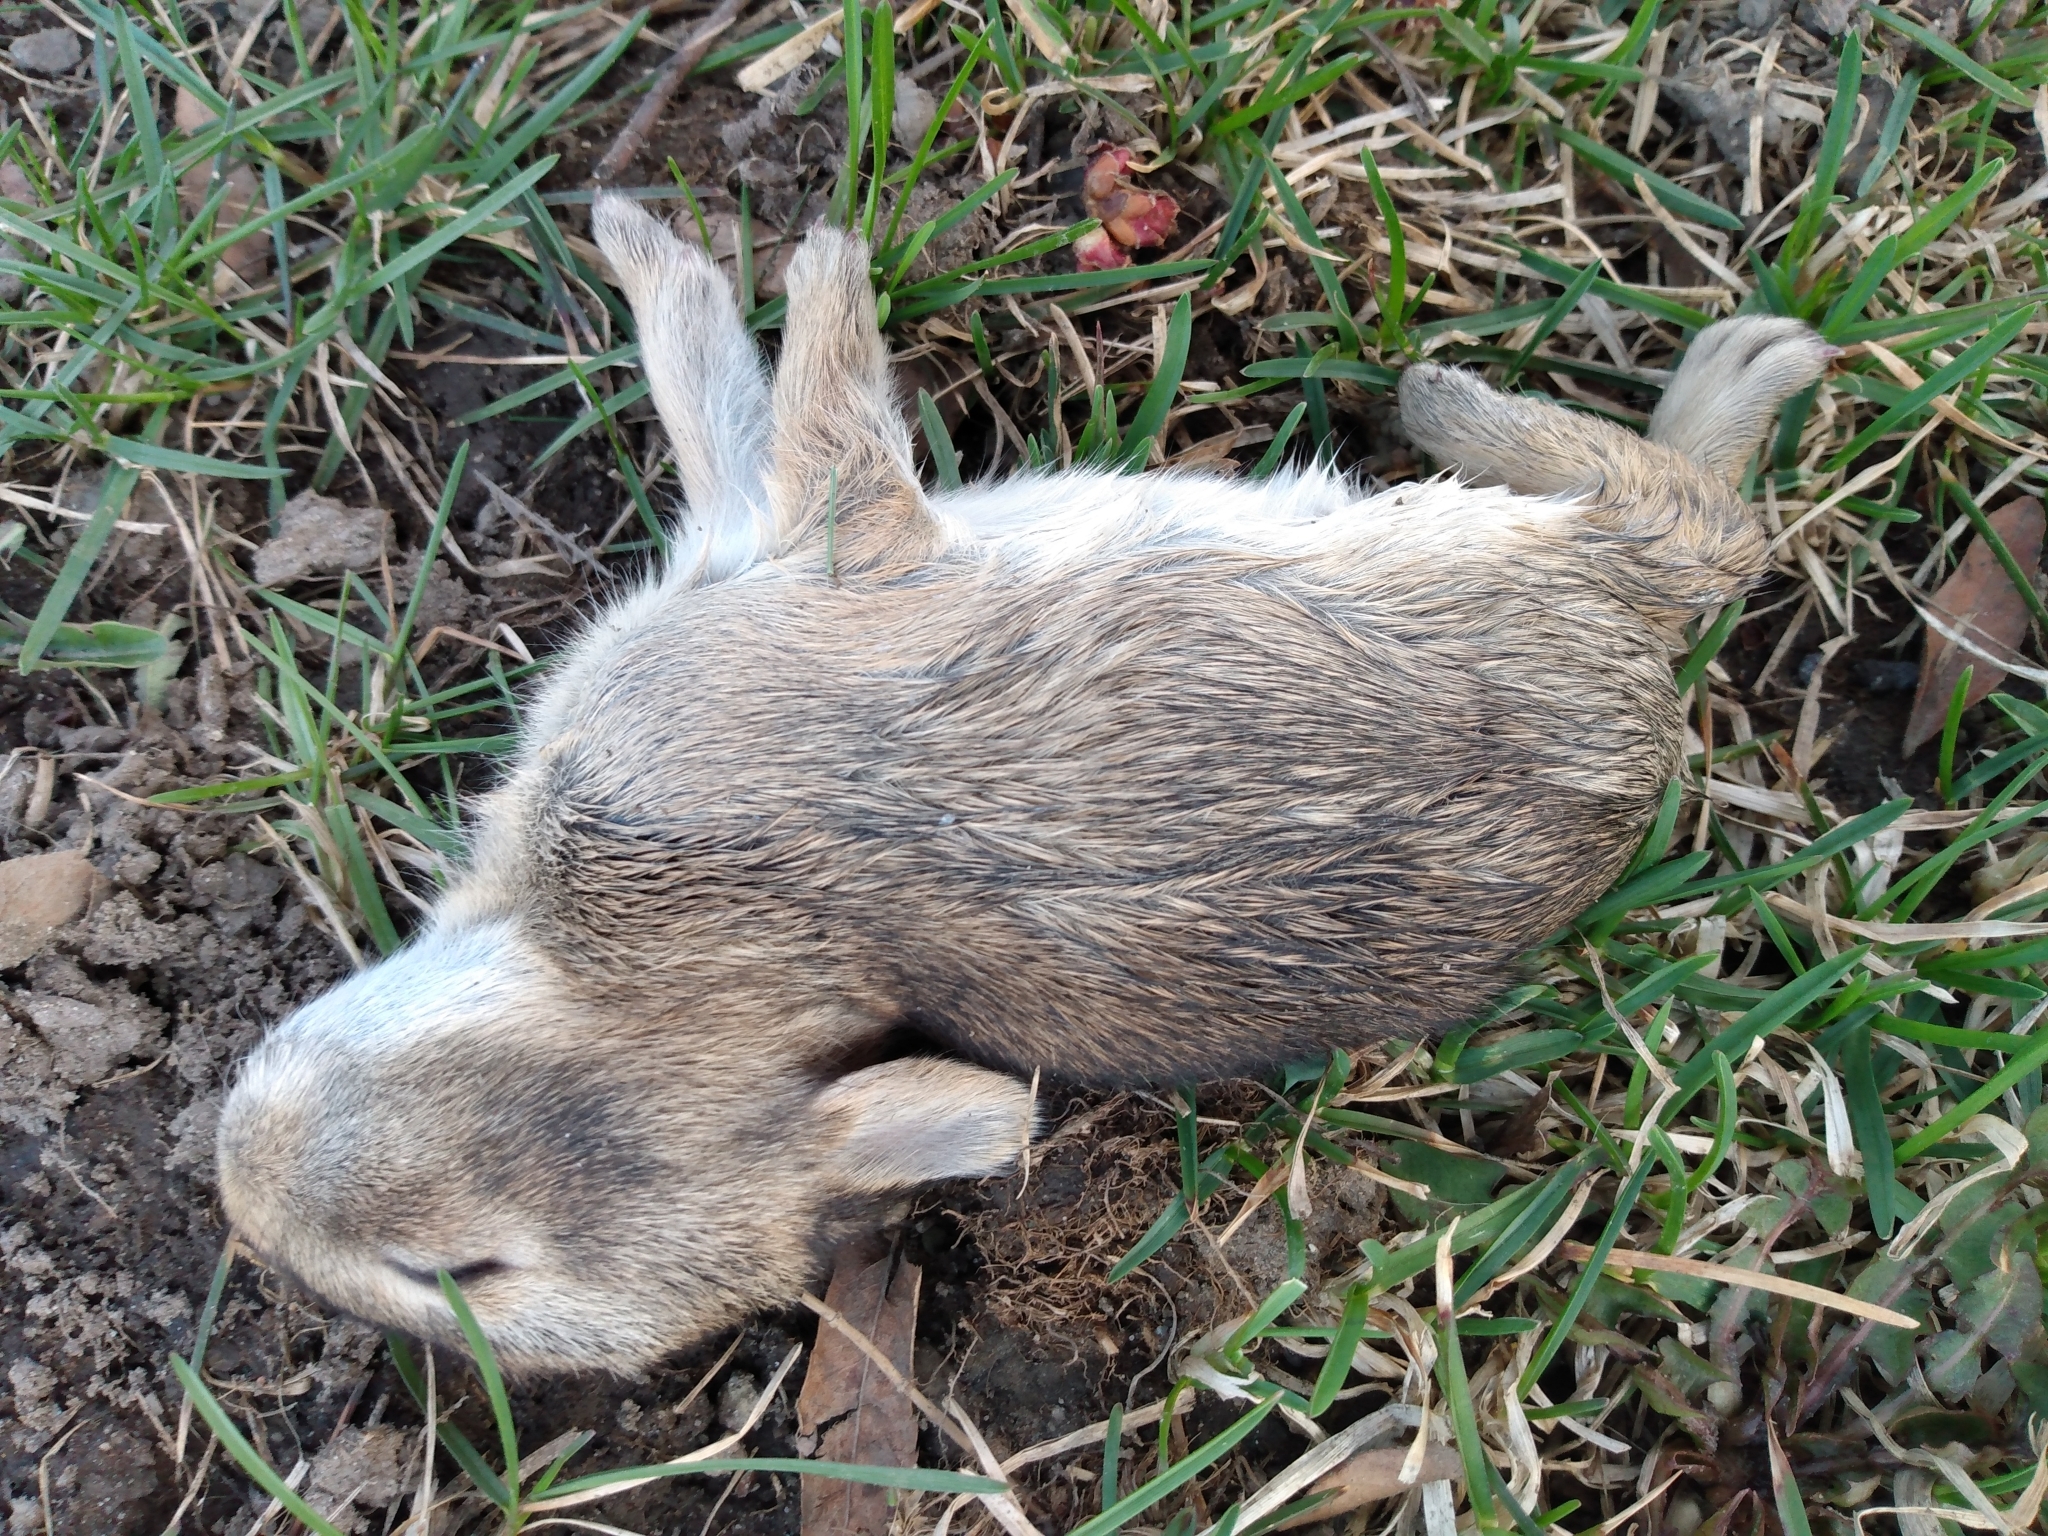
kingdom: Animalia
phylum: Chordata
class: Mammalia
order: Lagomorpha
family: Leporidae
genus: Sylvilagus
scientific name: Sylvilagus floridanus
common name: Eastern cottontail
